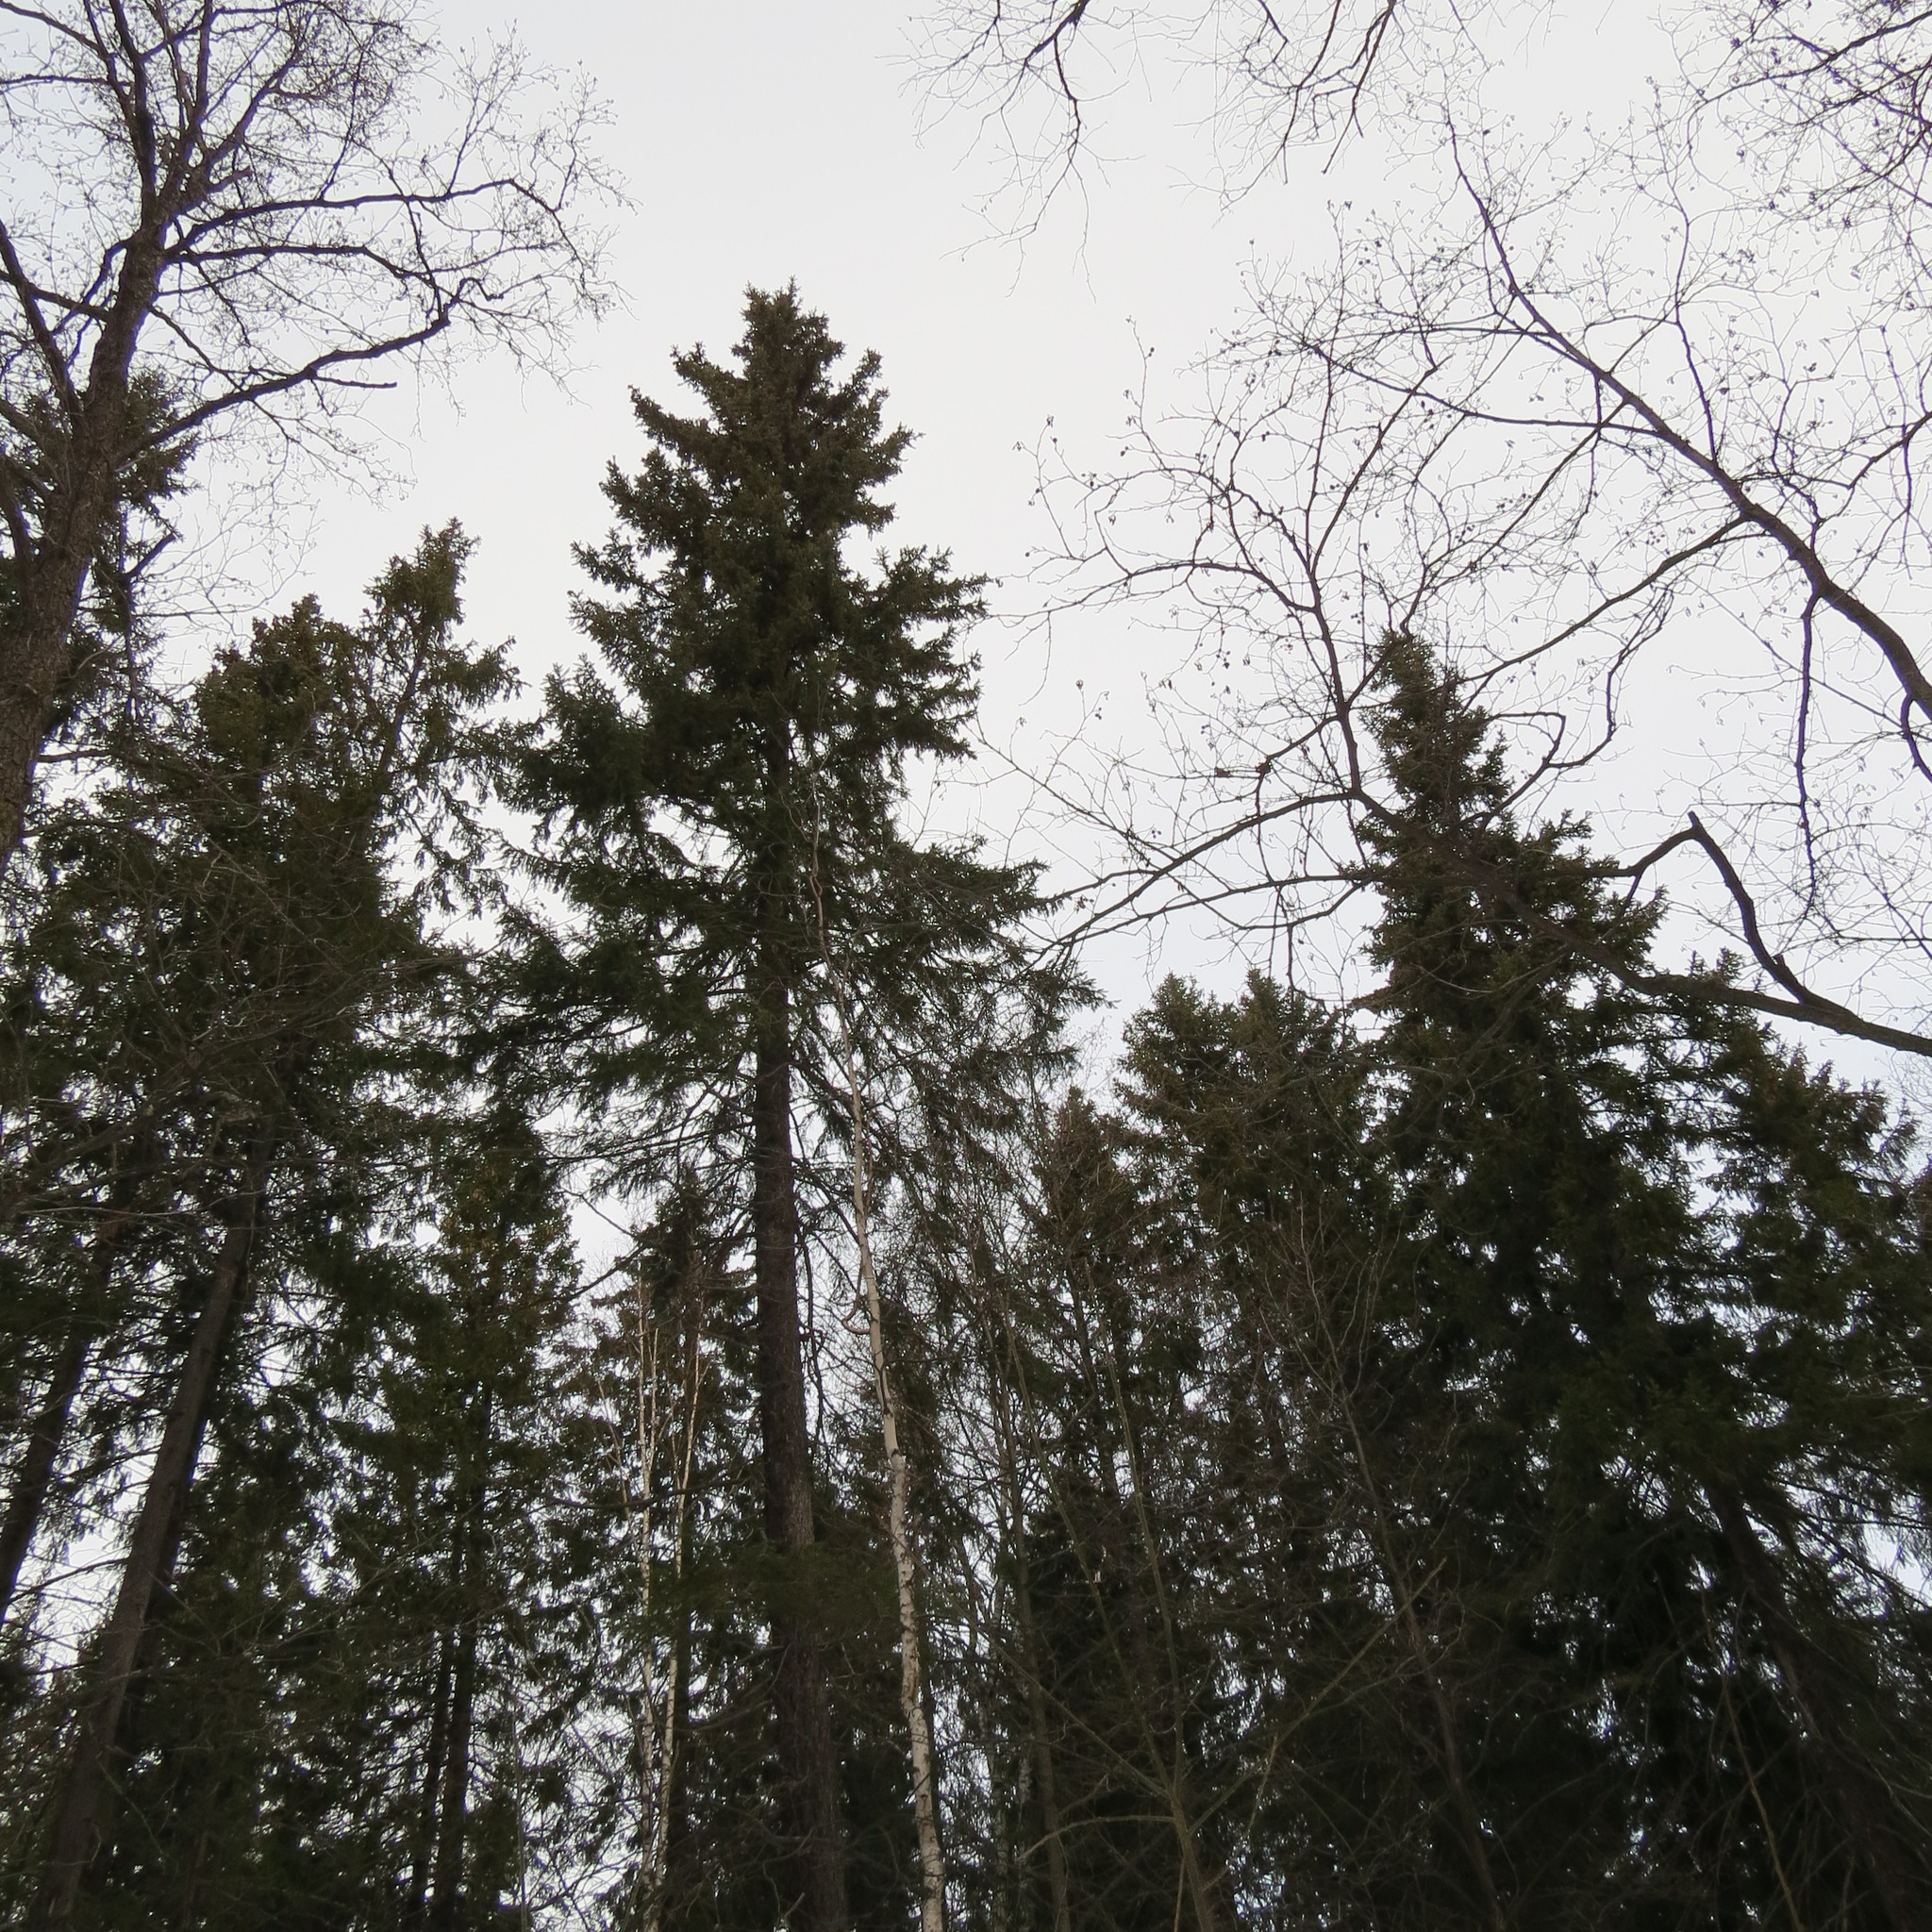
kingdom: Plantae
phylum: Tracheophyta
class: Pinopsida
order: Pinales
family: Pinaceae
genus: Picea
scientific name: Picea obovata
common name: Siberian spruce
